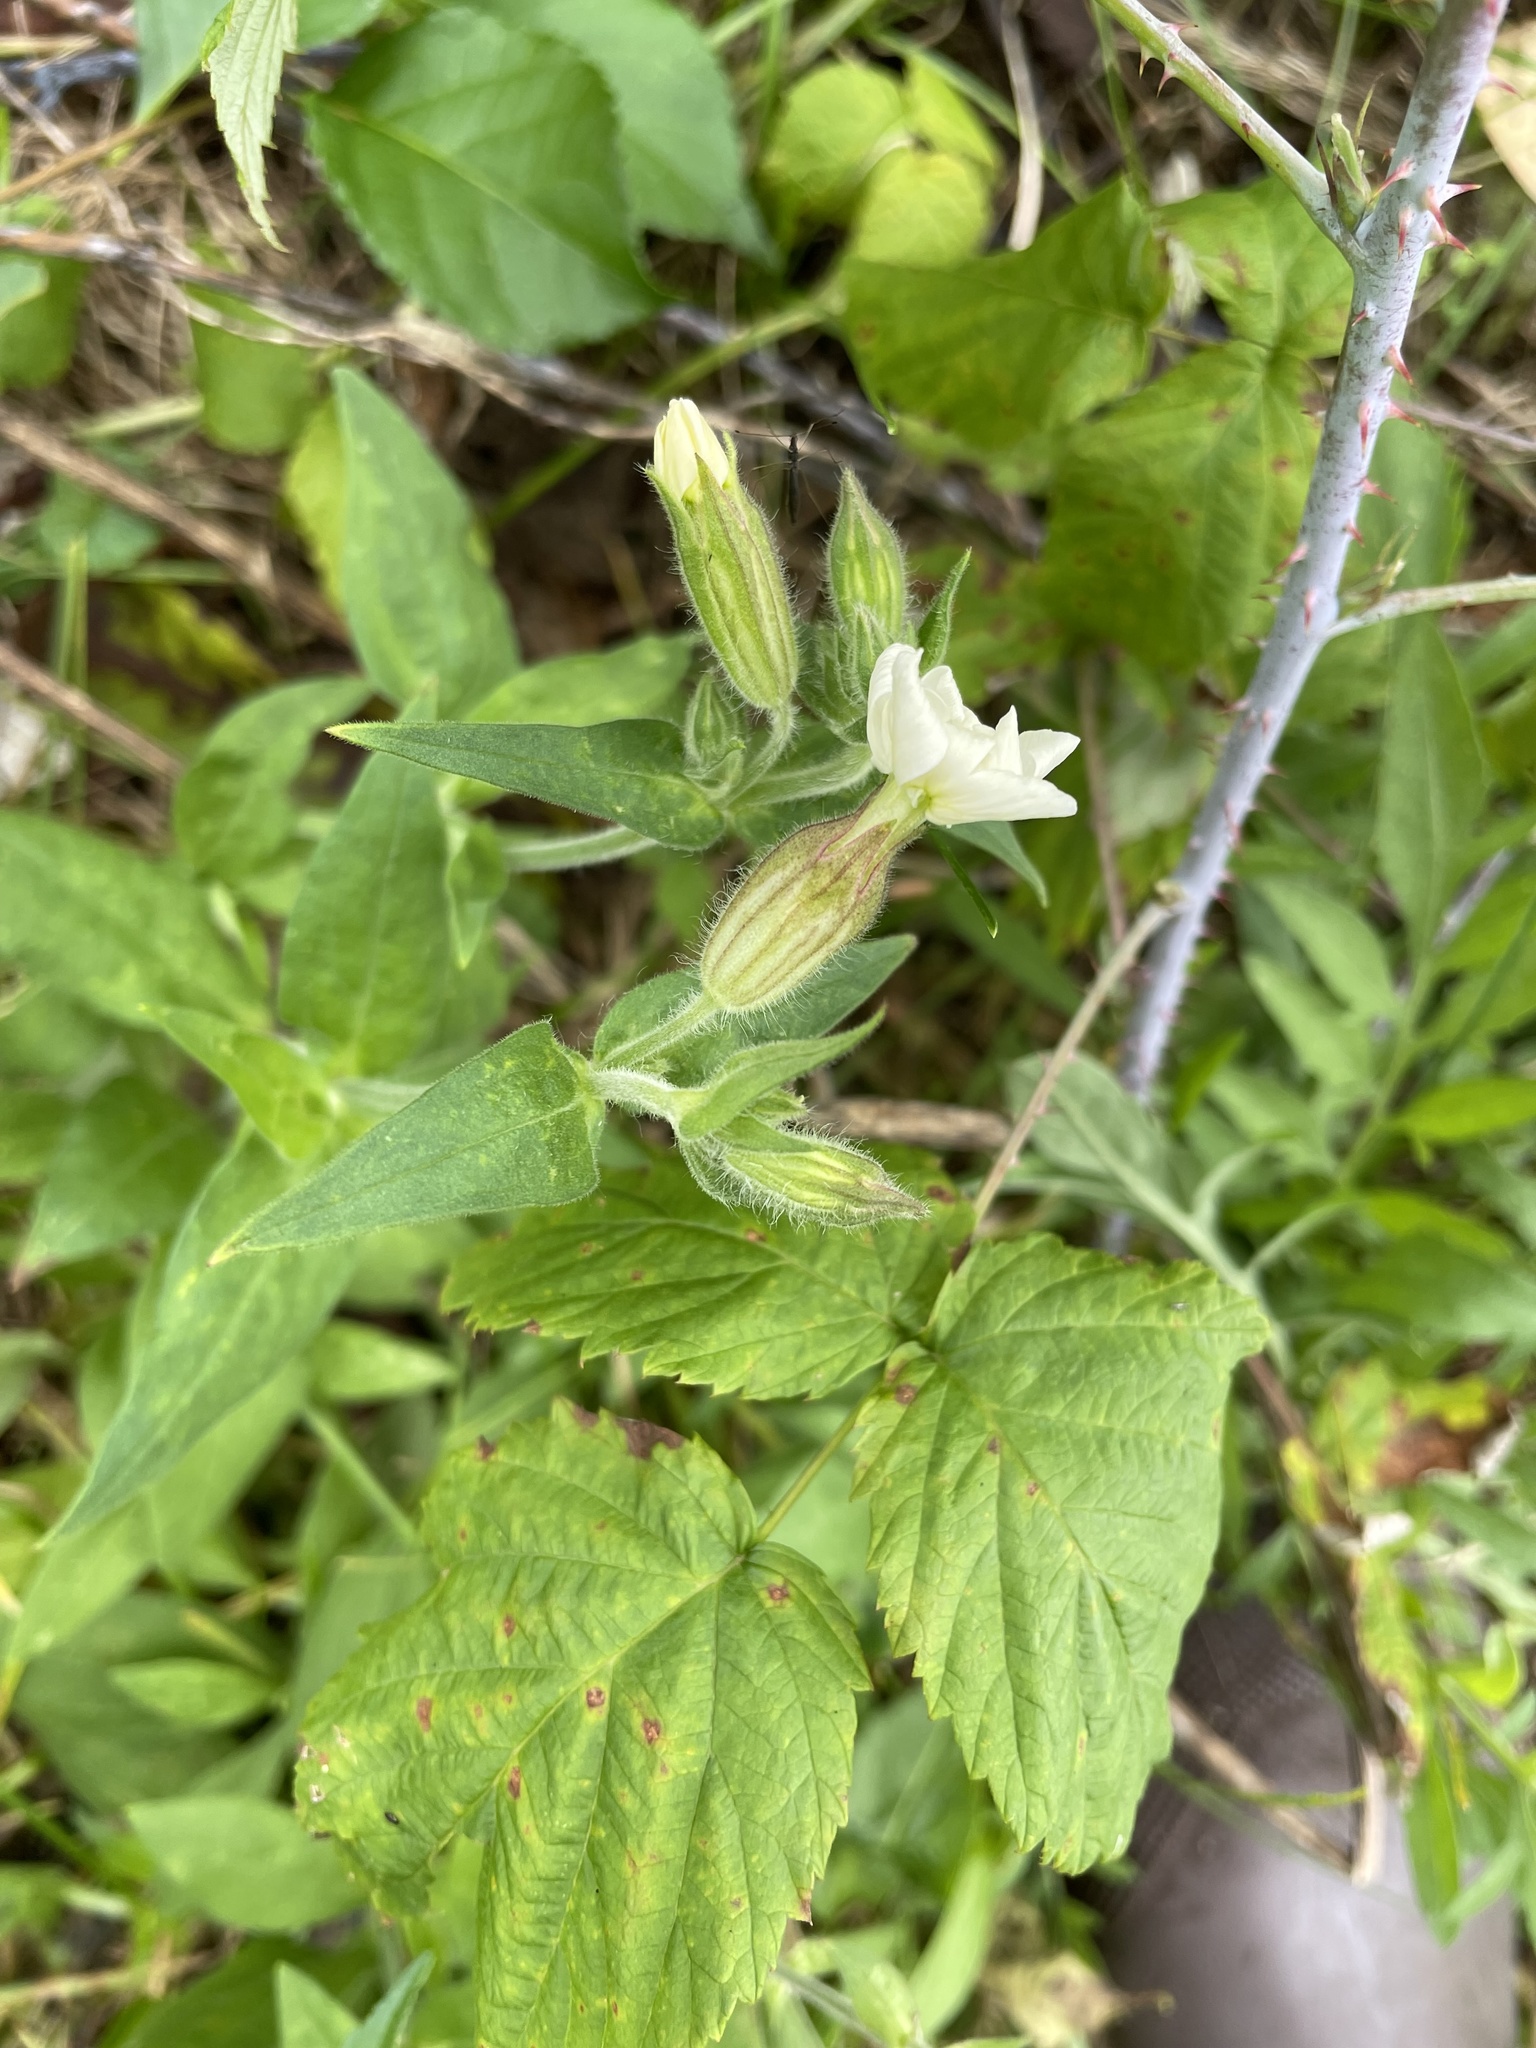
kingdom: Plantae
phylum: Tracheophyta
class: Magnoliopsida
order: Caryophyllales
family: Caryophyllaceae
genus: Silene
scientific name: Silene latifolia
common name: White campion
